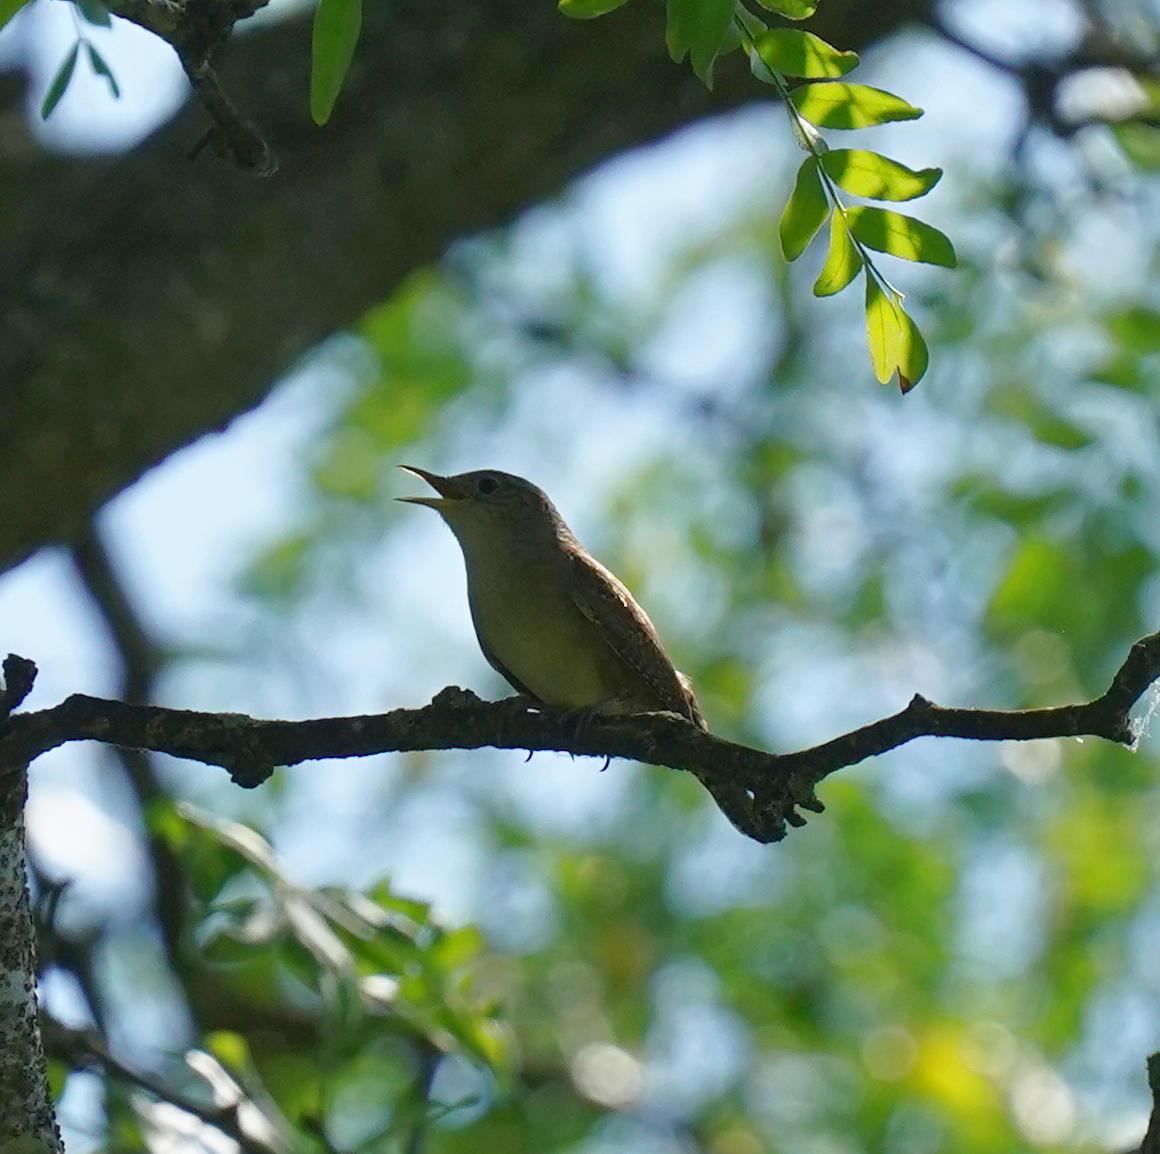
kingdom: Animalia
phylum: Chordata
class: Aves
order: Passeriformes
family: Troglodytidae
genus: Troglodytes
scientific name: Troglodytes aedon
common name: House wren
